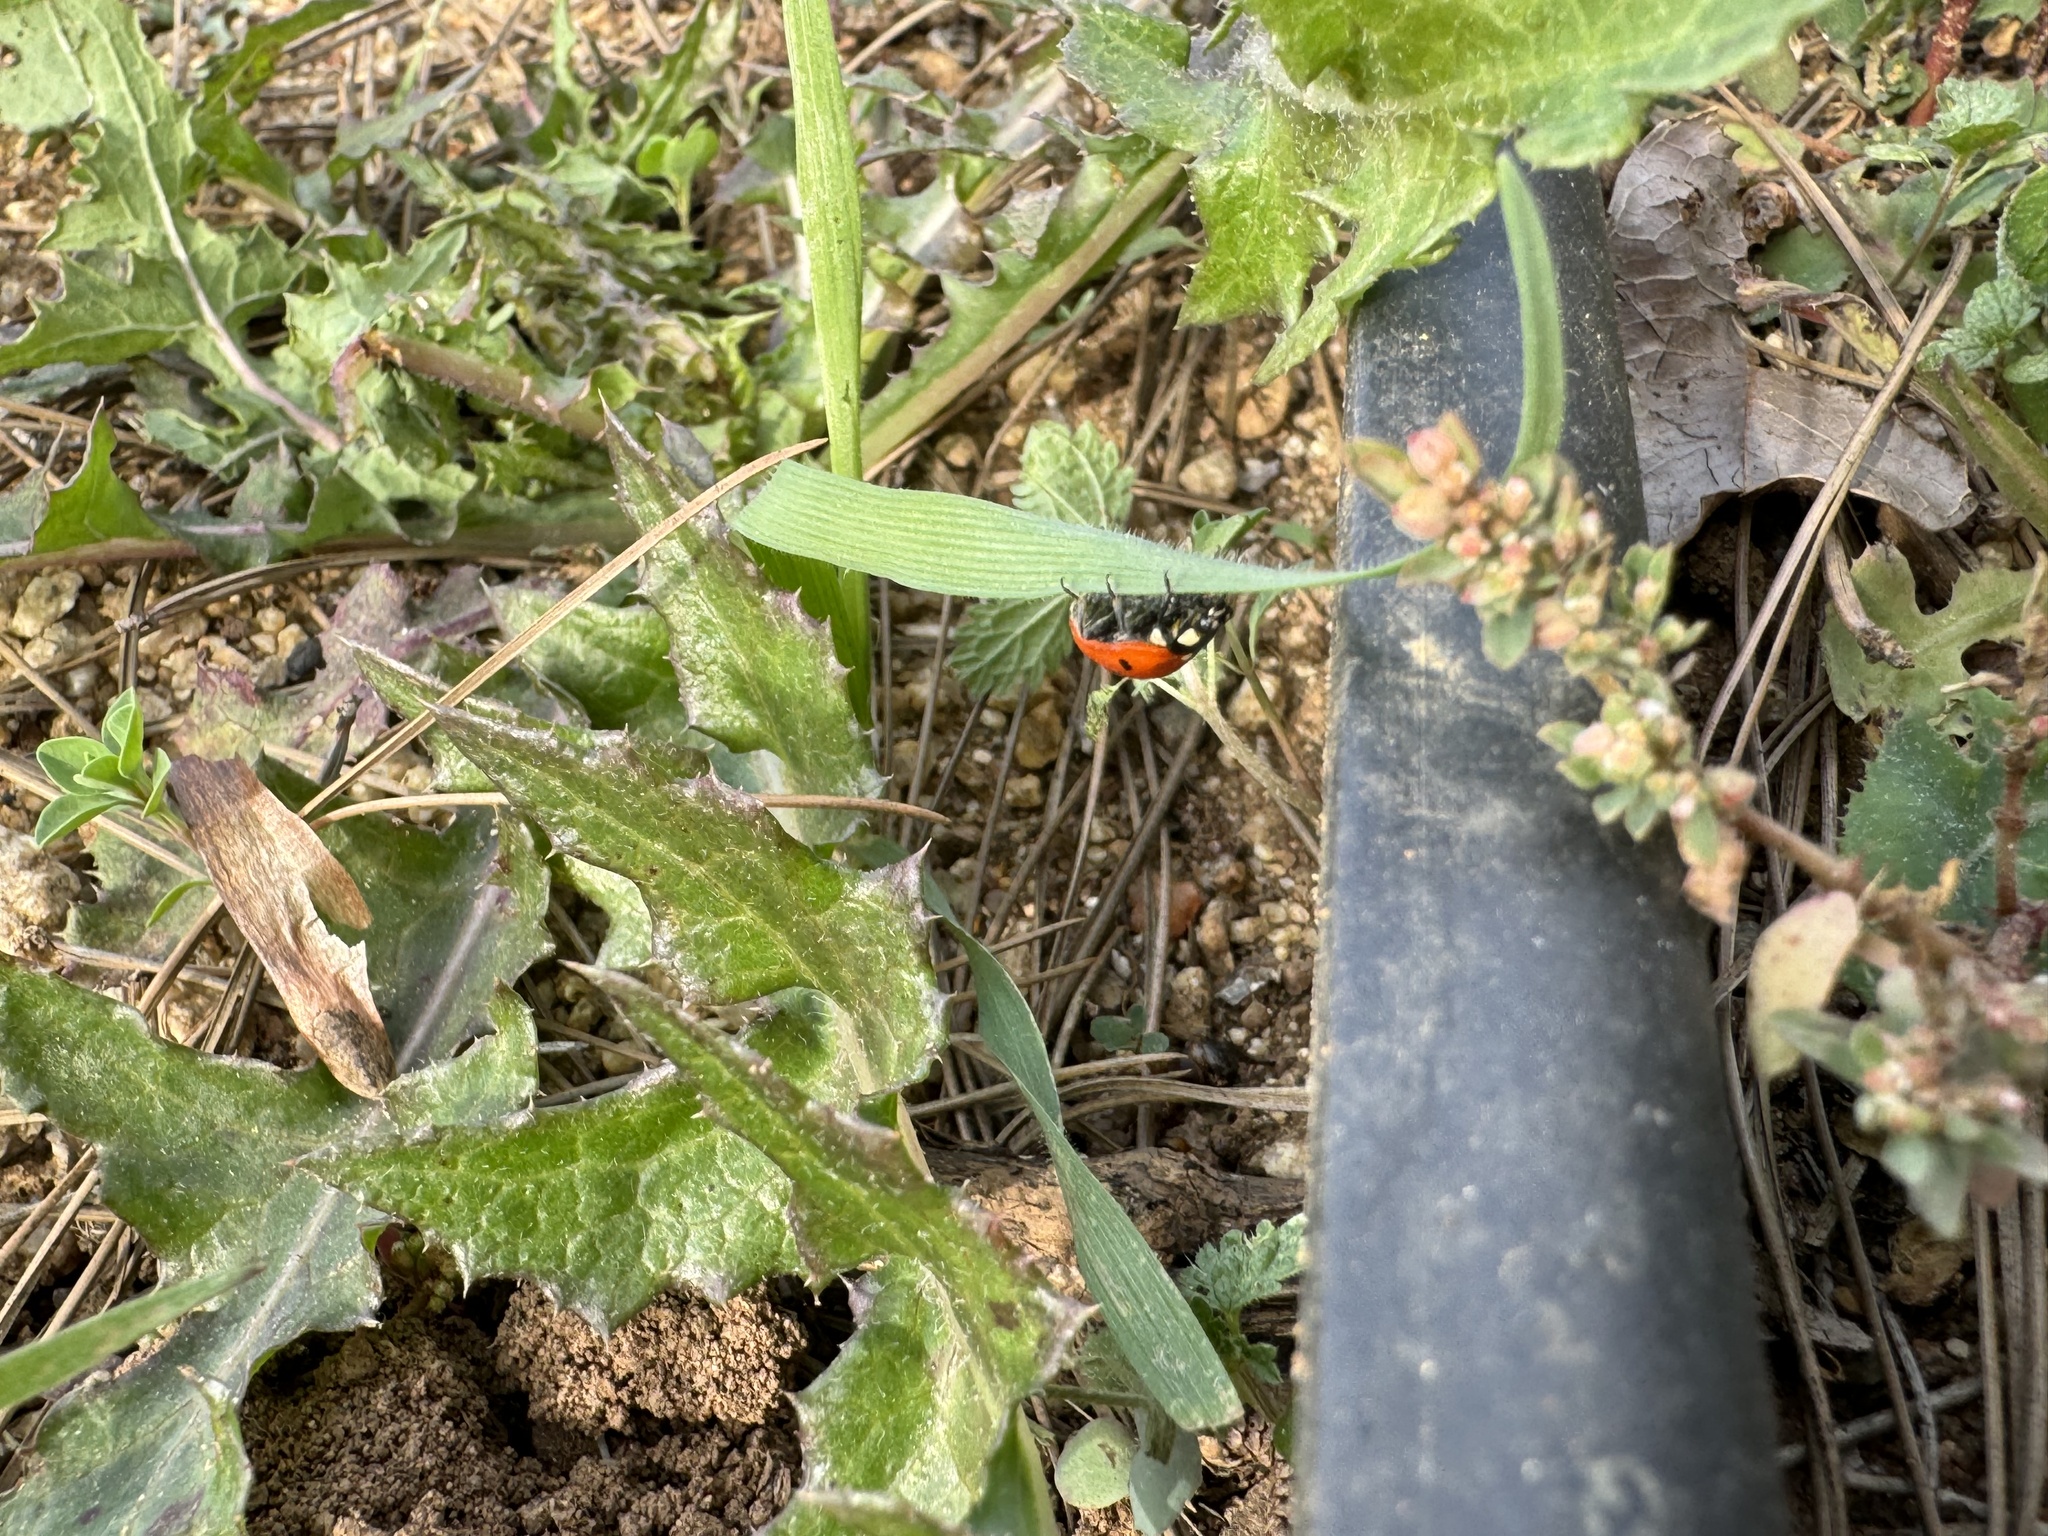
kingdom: Animalia
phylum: Arthropoda
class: Insecta
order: Coleoptera
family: Coccinellidae
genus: Coccinella
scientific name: Coccinella septempunctata
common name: Sevenspotted lady beetle
